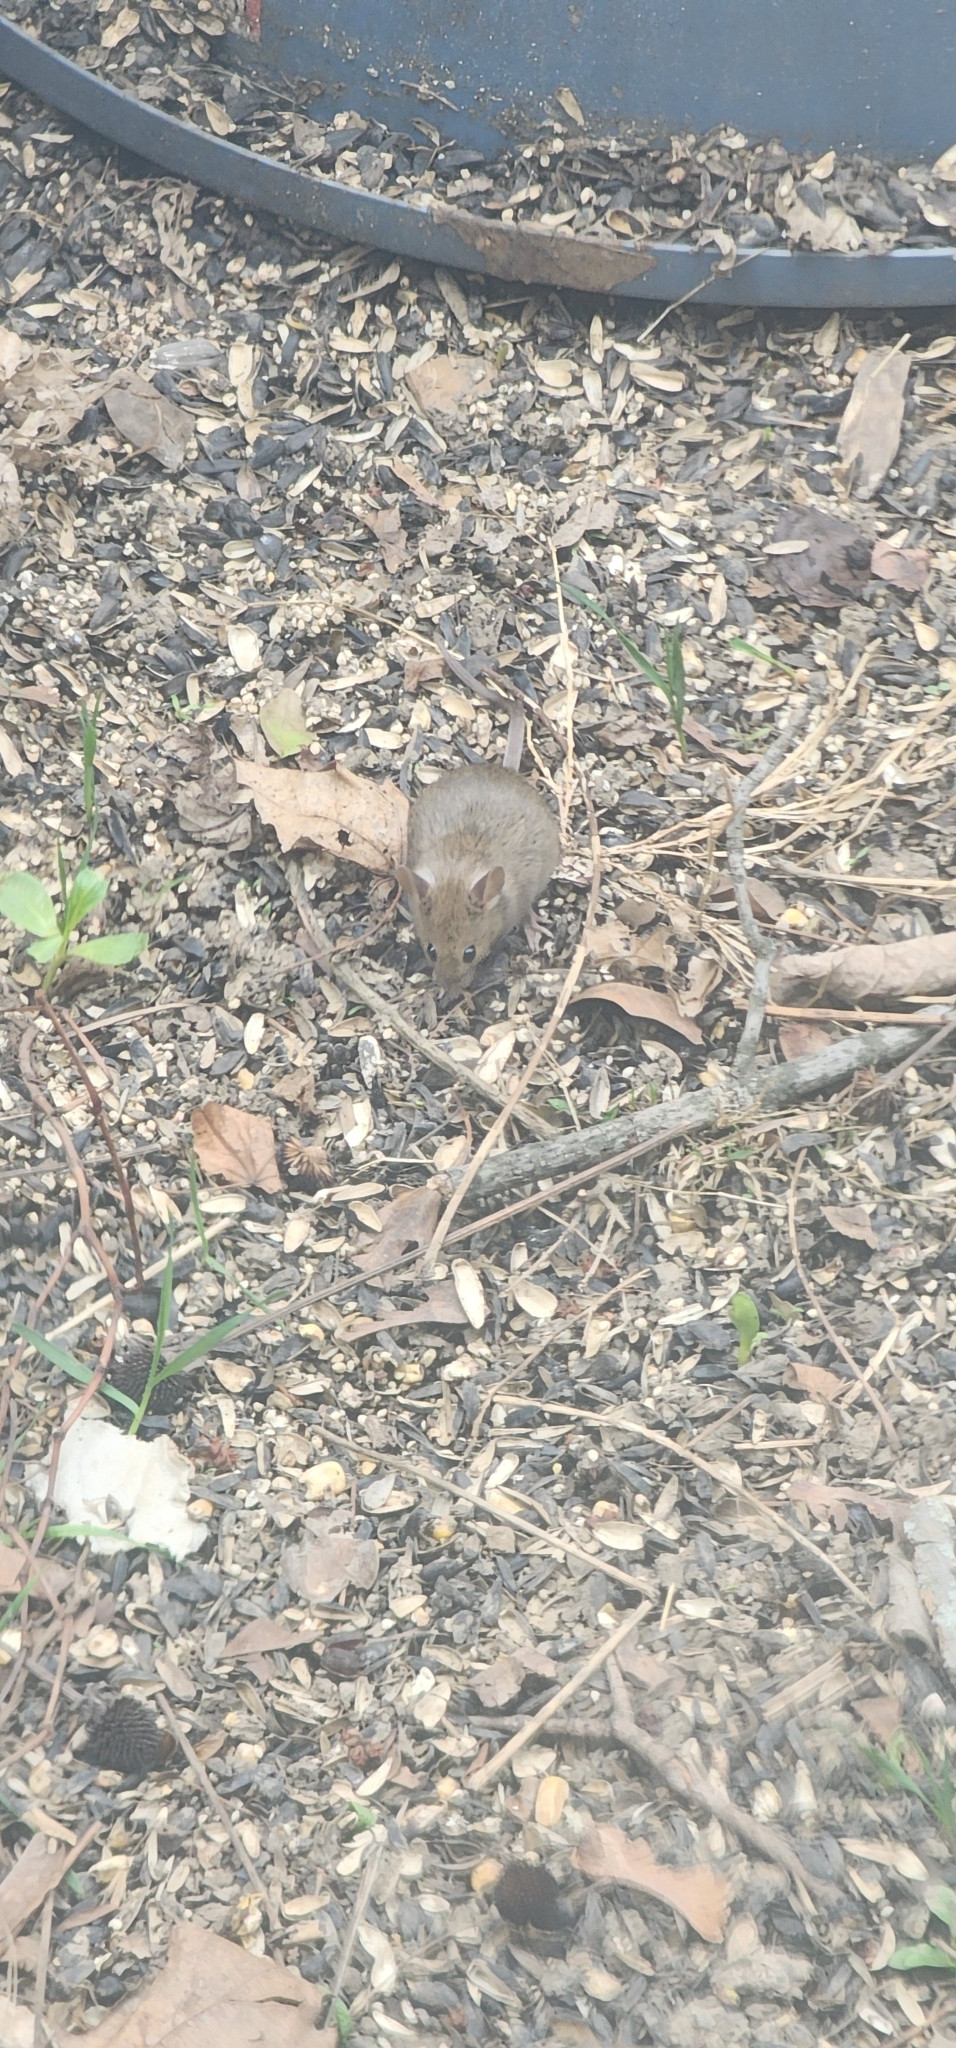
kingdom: Animalia
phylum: Chordata
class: Mammalia
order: Rodentia
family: Muridae
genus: Mus
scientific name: Mus musculus
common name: House mouse
